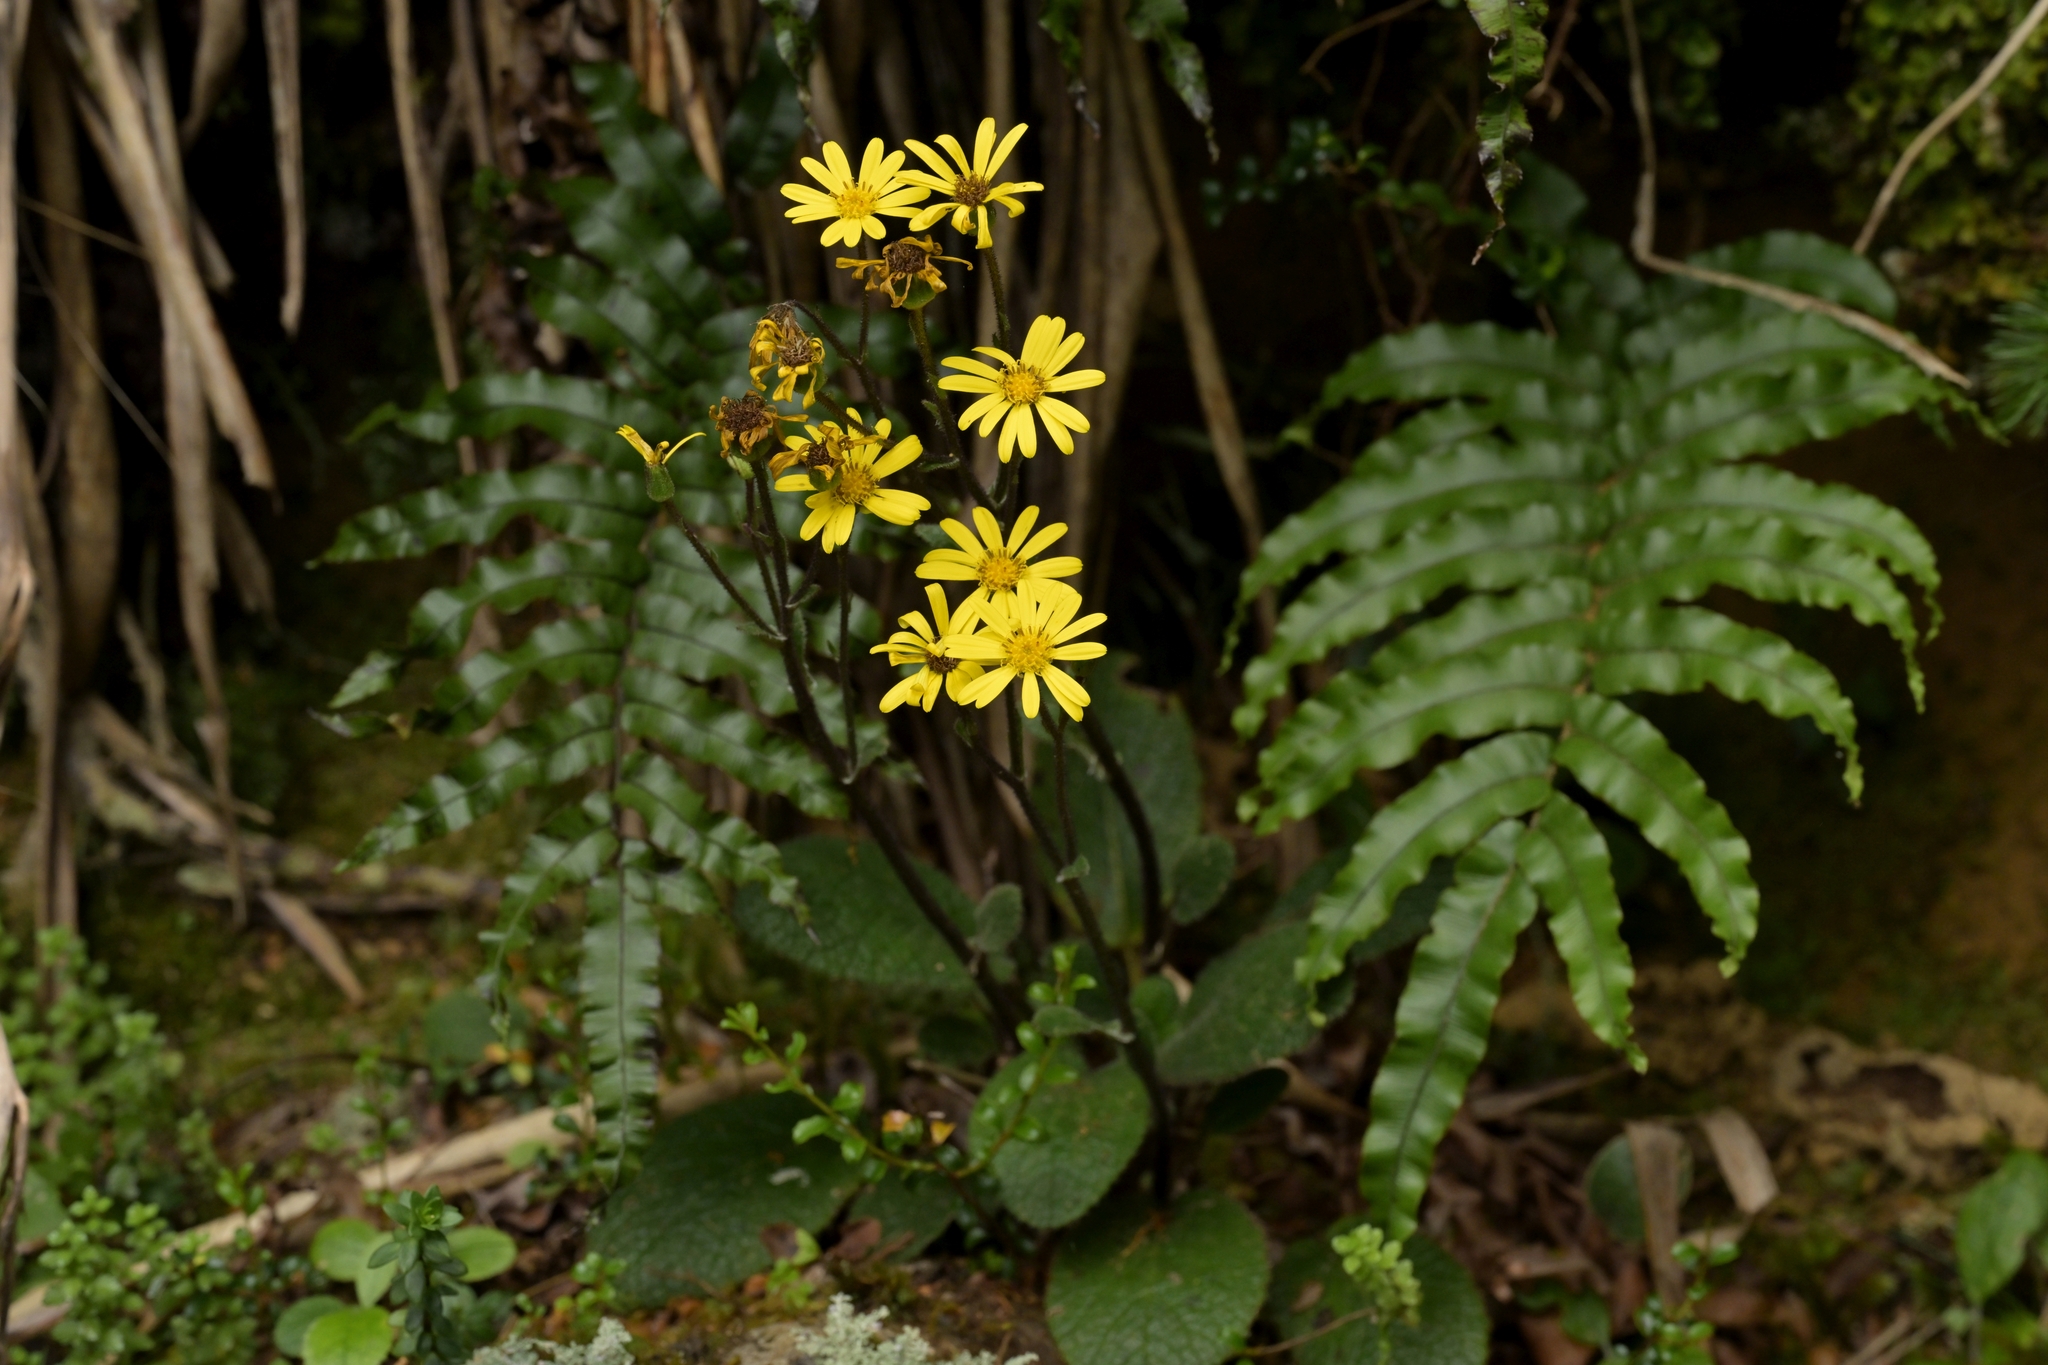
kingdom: Plantae
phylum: Tracheophyta
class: Magnoliopsida
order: Asterales
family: Asteraceae
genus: Brachyglottis
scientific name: Brachyglottis lagopus
